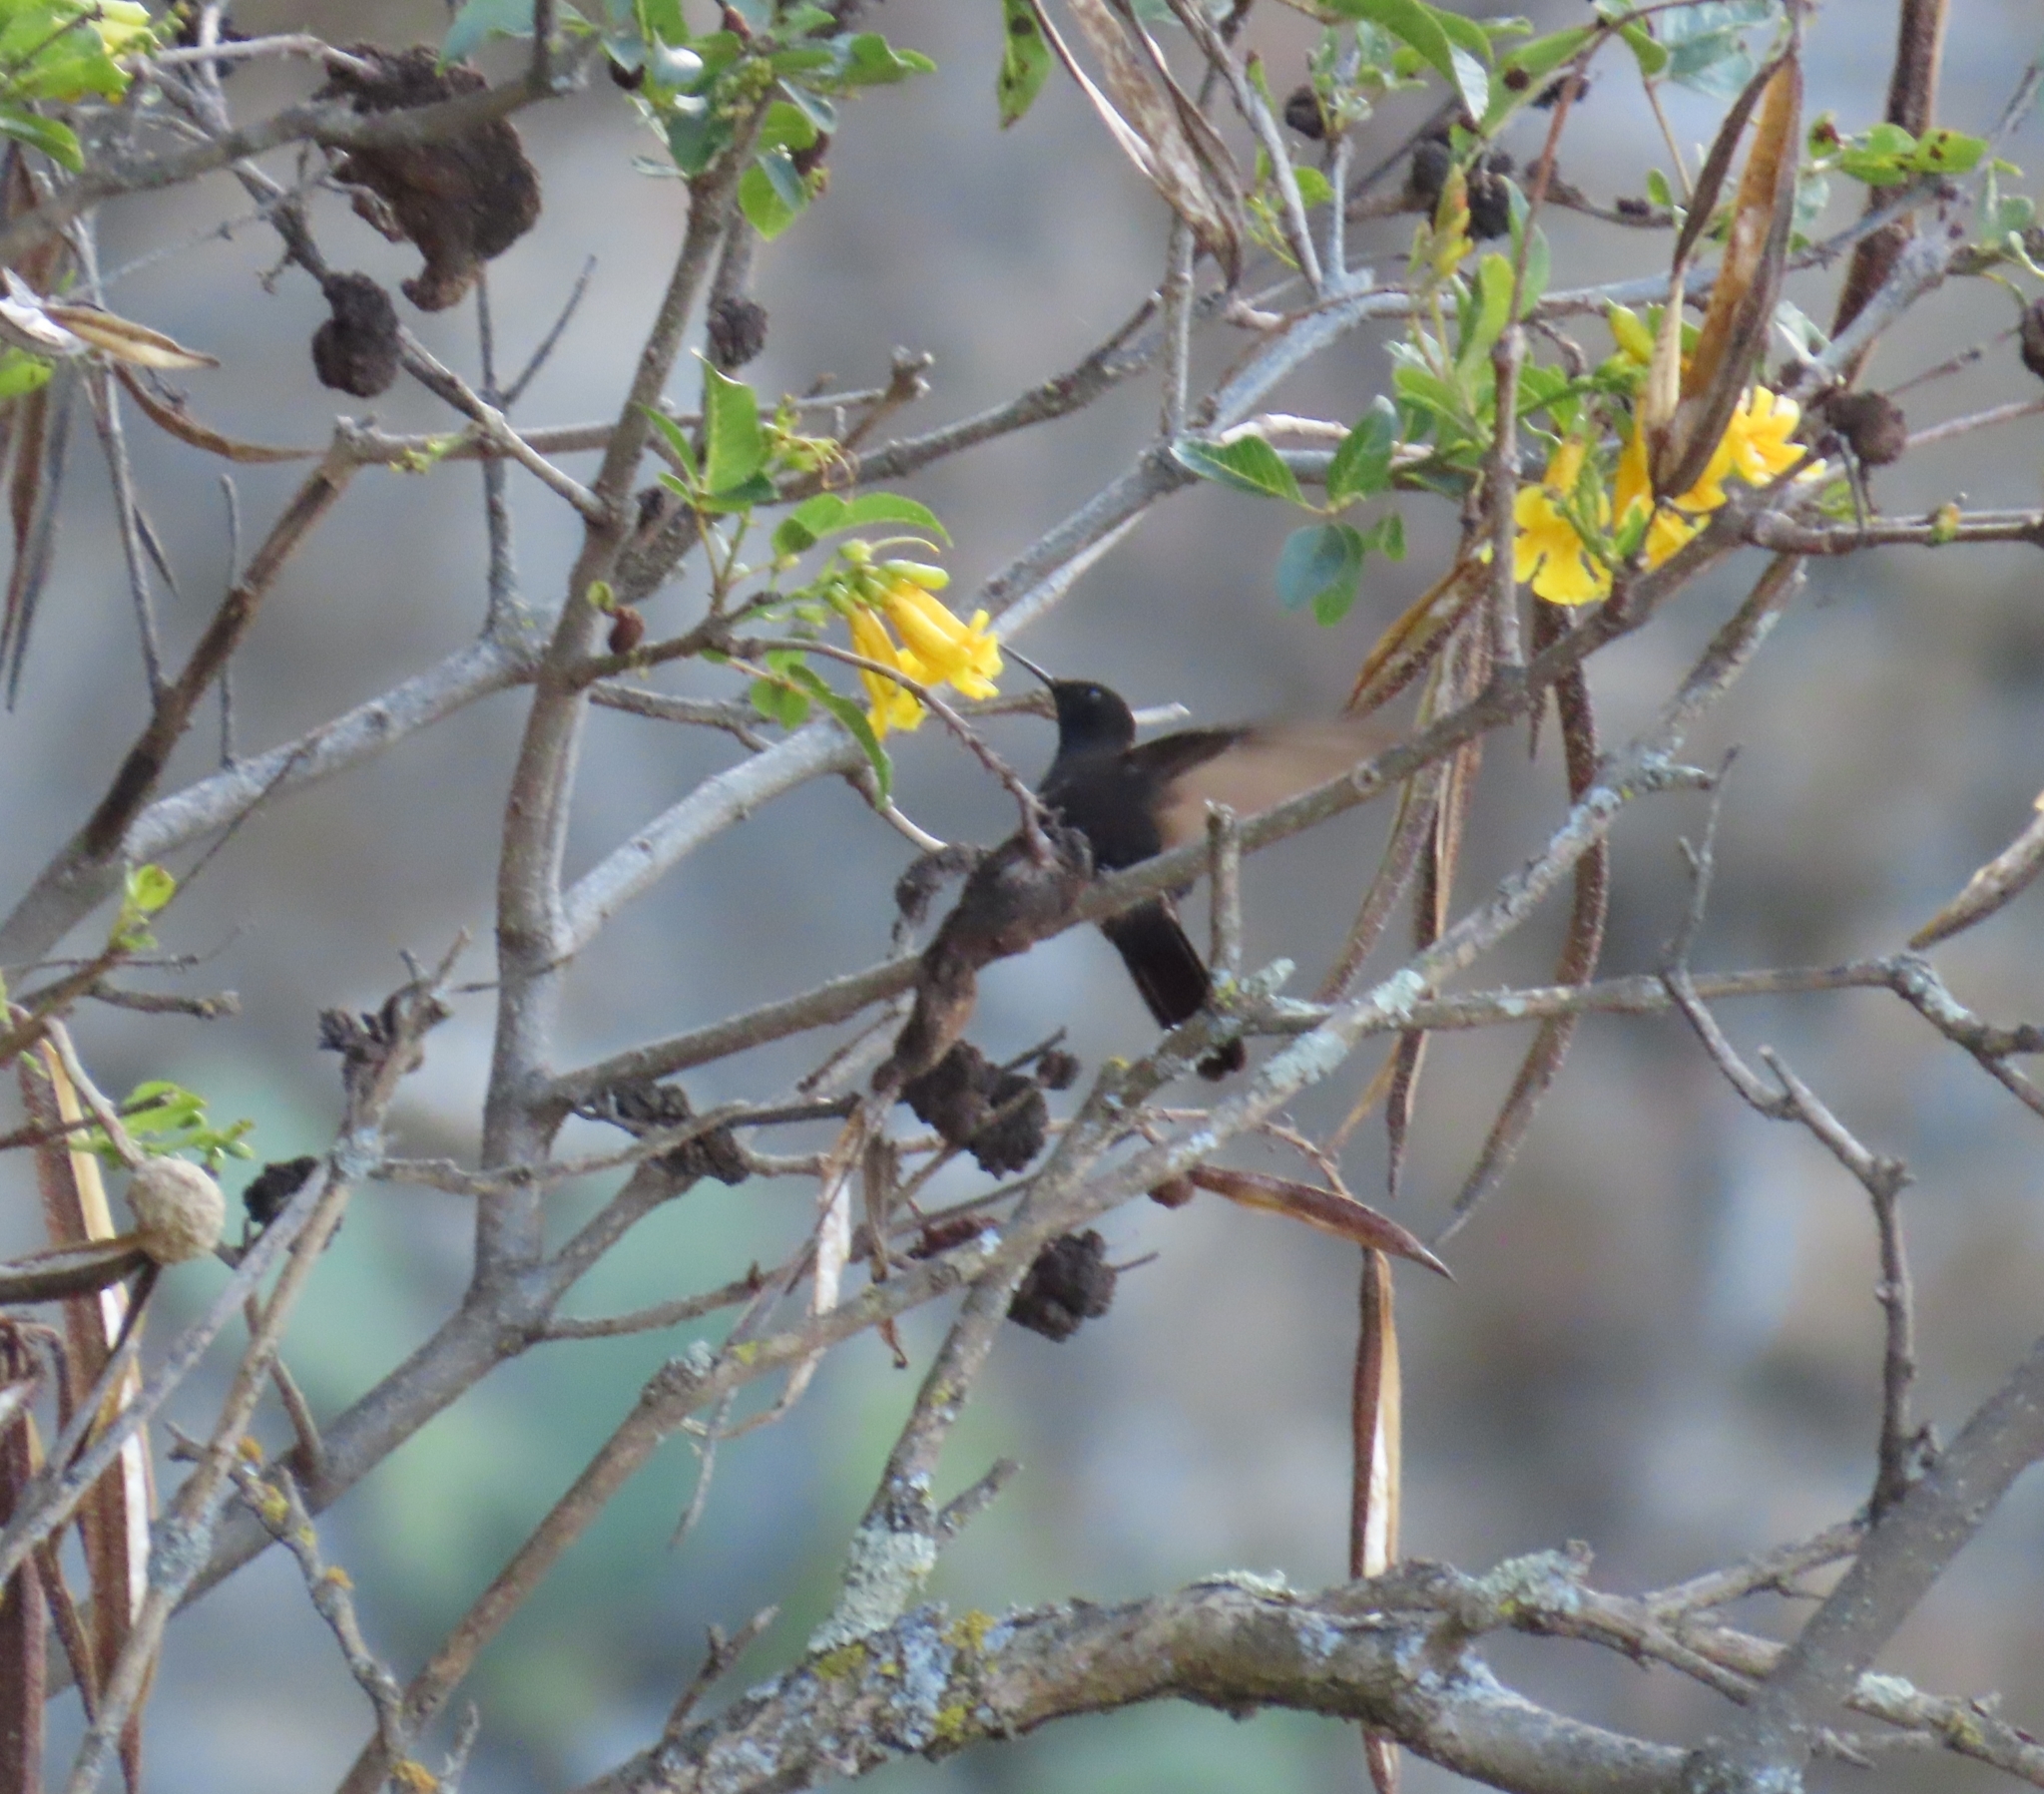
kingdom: Animalia
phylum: Chordata
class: Aves
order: Apodiformes
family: Trochilidae
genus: Metallura
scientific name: Metallura phoebe
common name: Black metaltail
